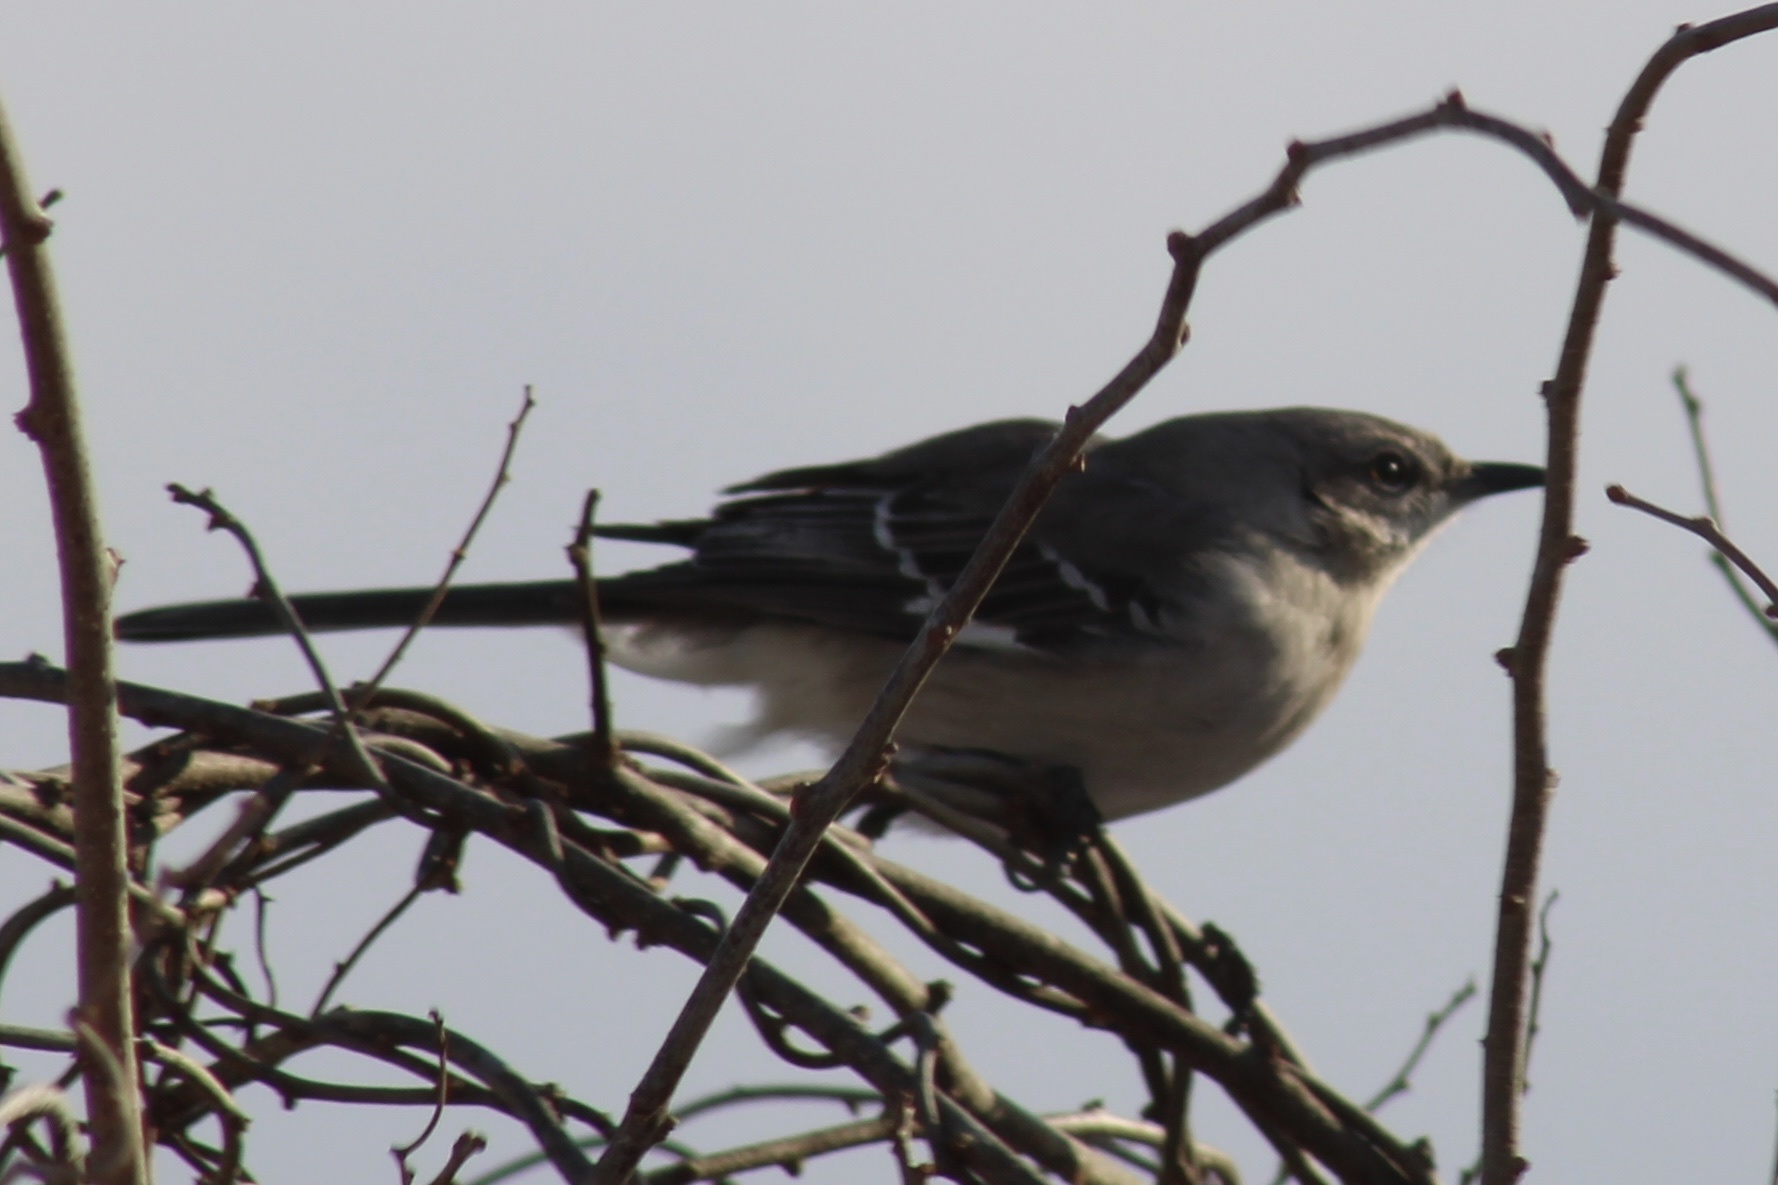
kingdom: Animalia
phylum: Chordata
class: Aves
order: Passeriformes
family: Mimidae
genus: Mimus
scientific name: Mimus polyglottos
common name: Northern mockingbird
